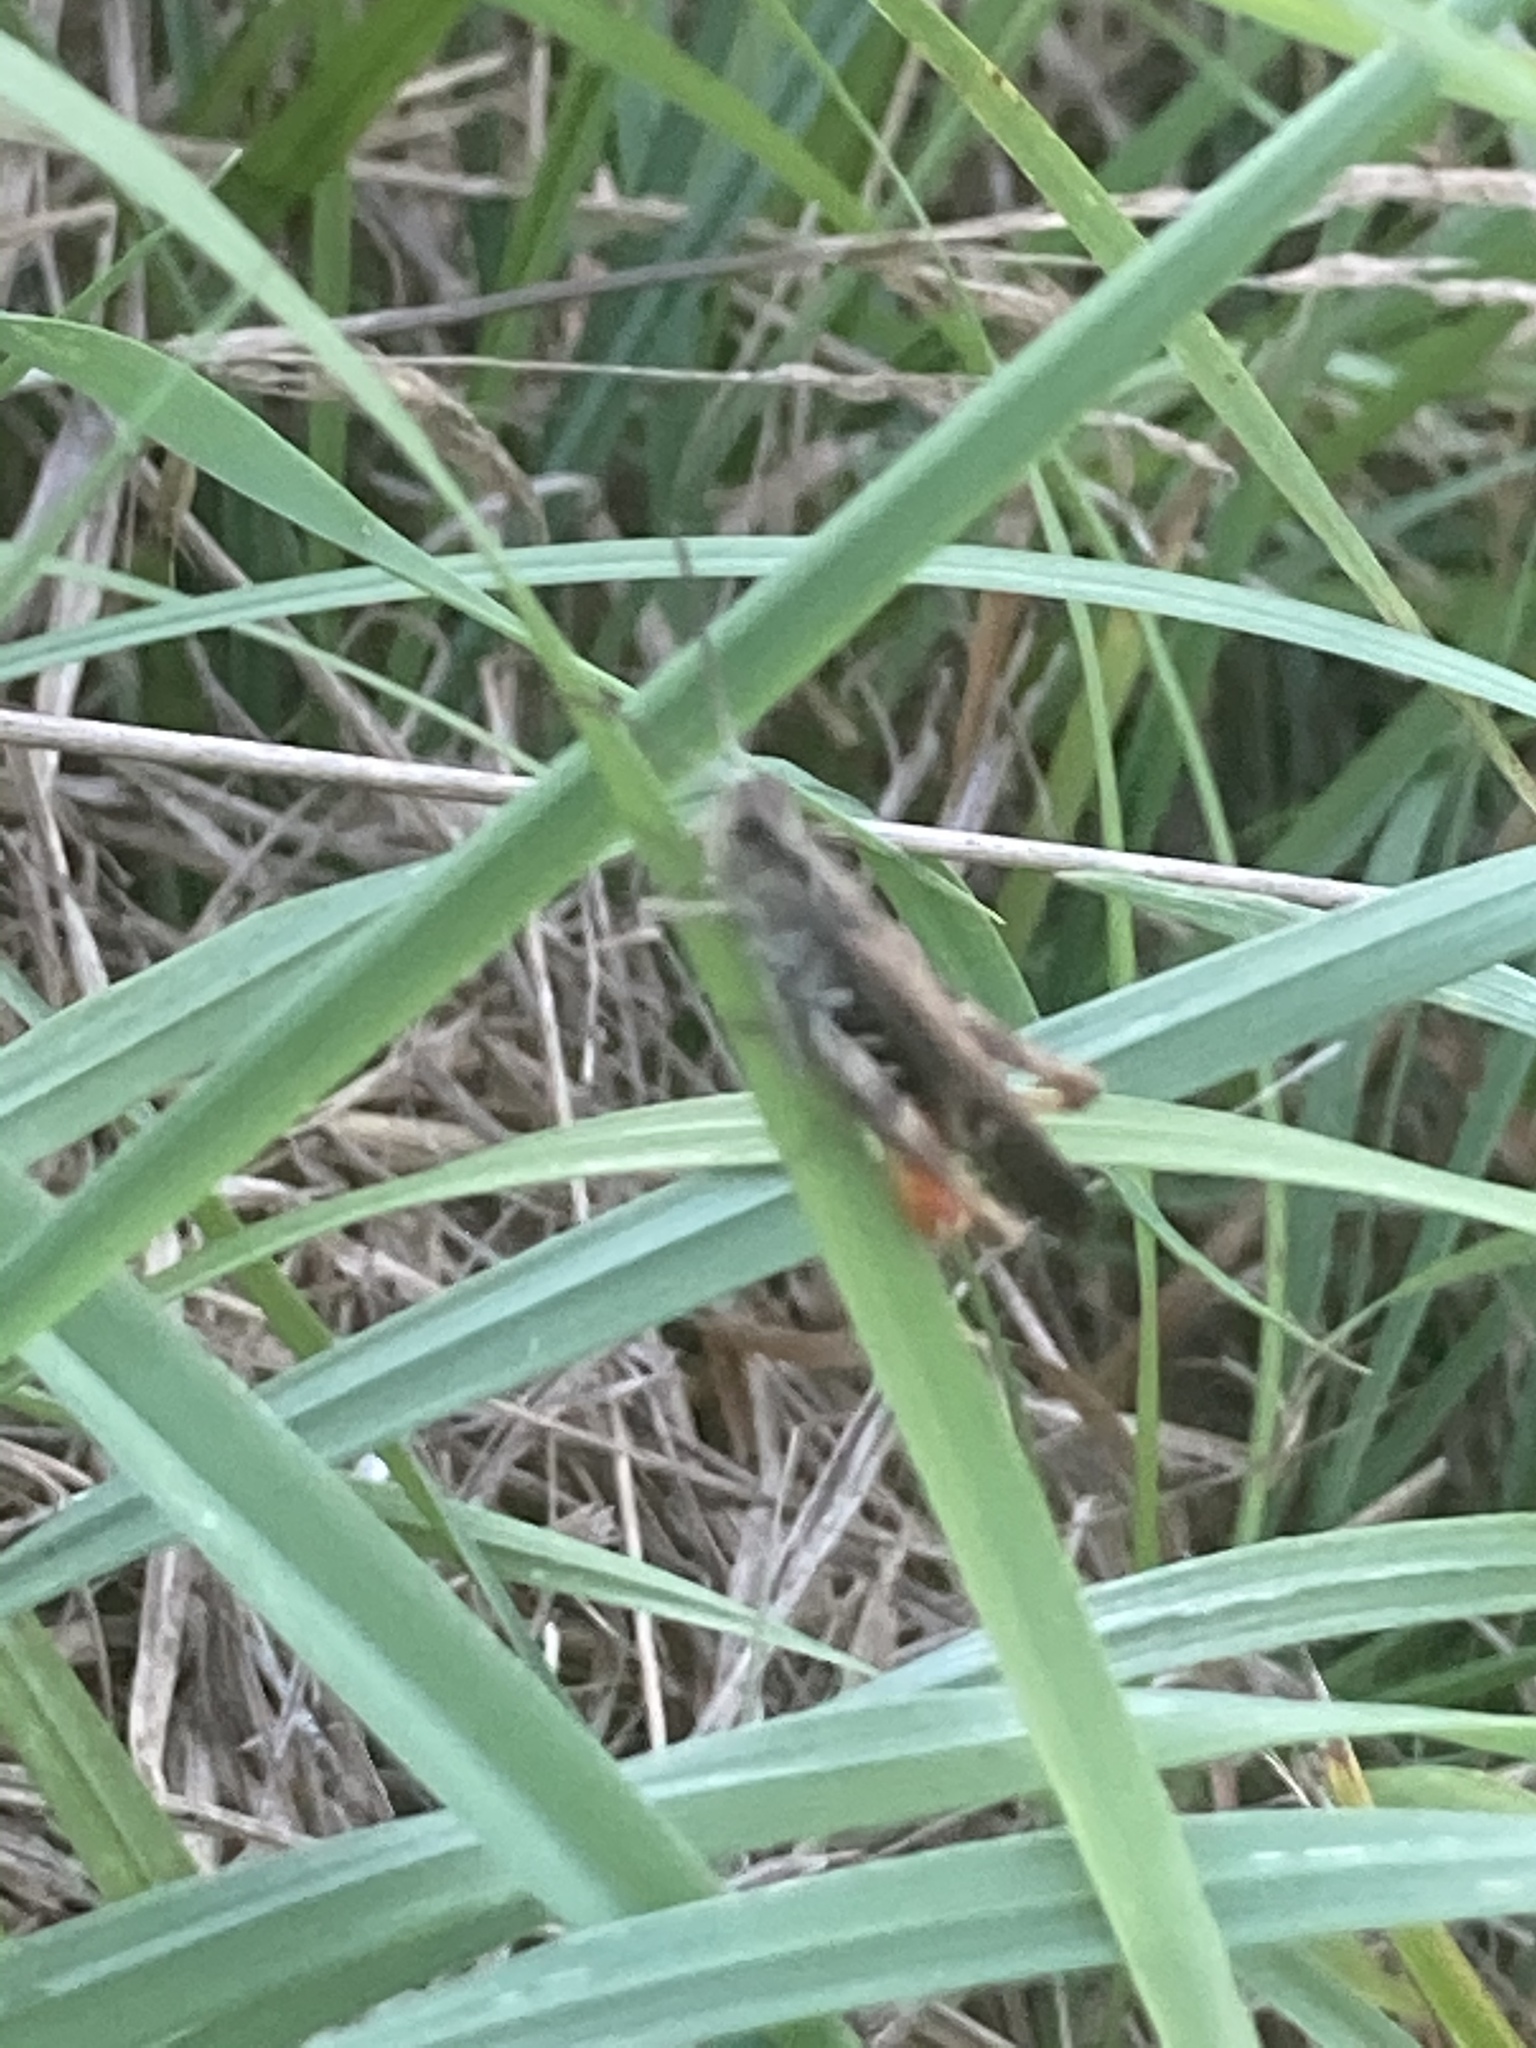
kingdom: Animalia
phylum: Arthropoda
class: Insecta
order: Orthoptera
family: Acrididae
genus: Chorthippus
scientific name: Chorthippus brunneus
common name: Field grasshopper
